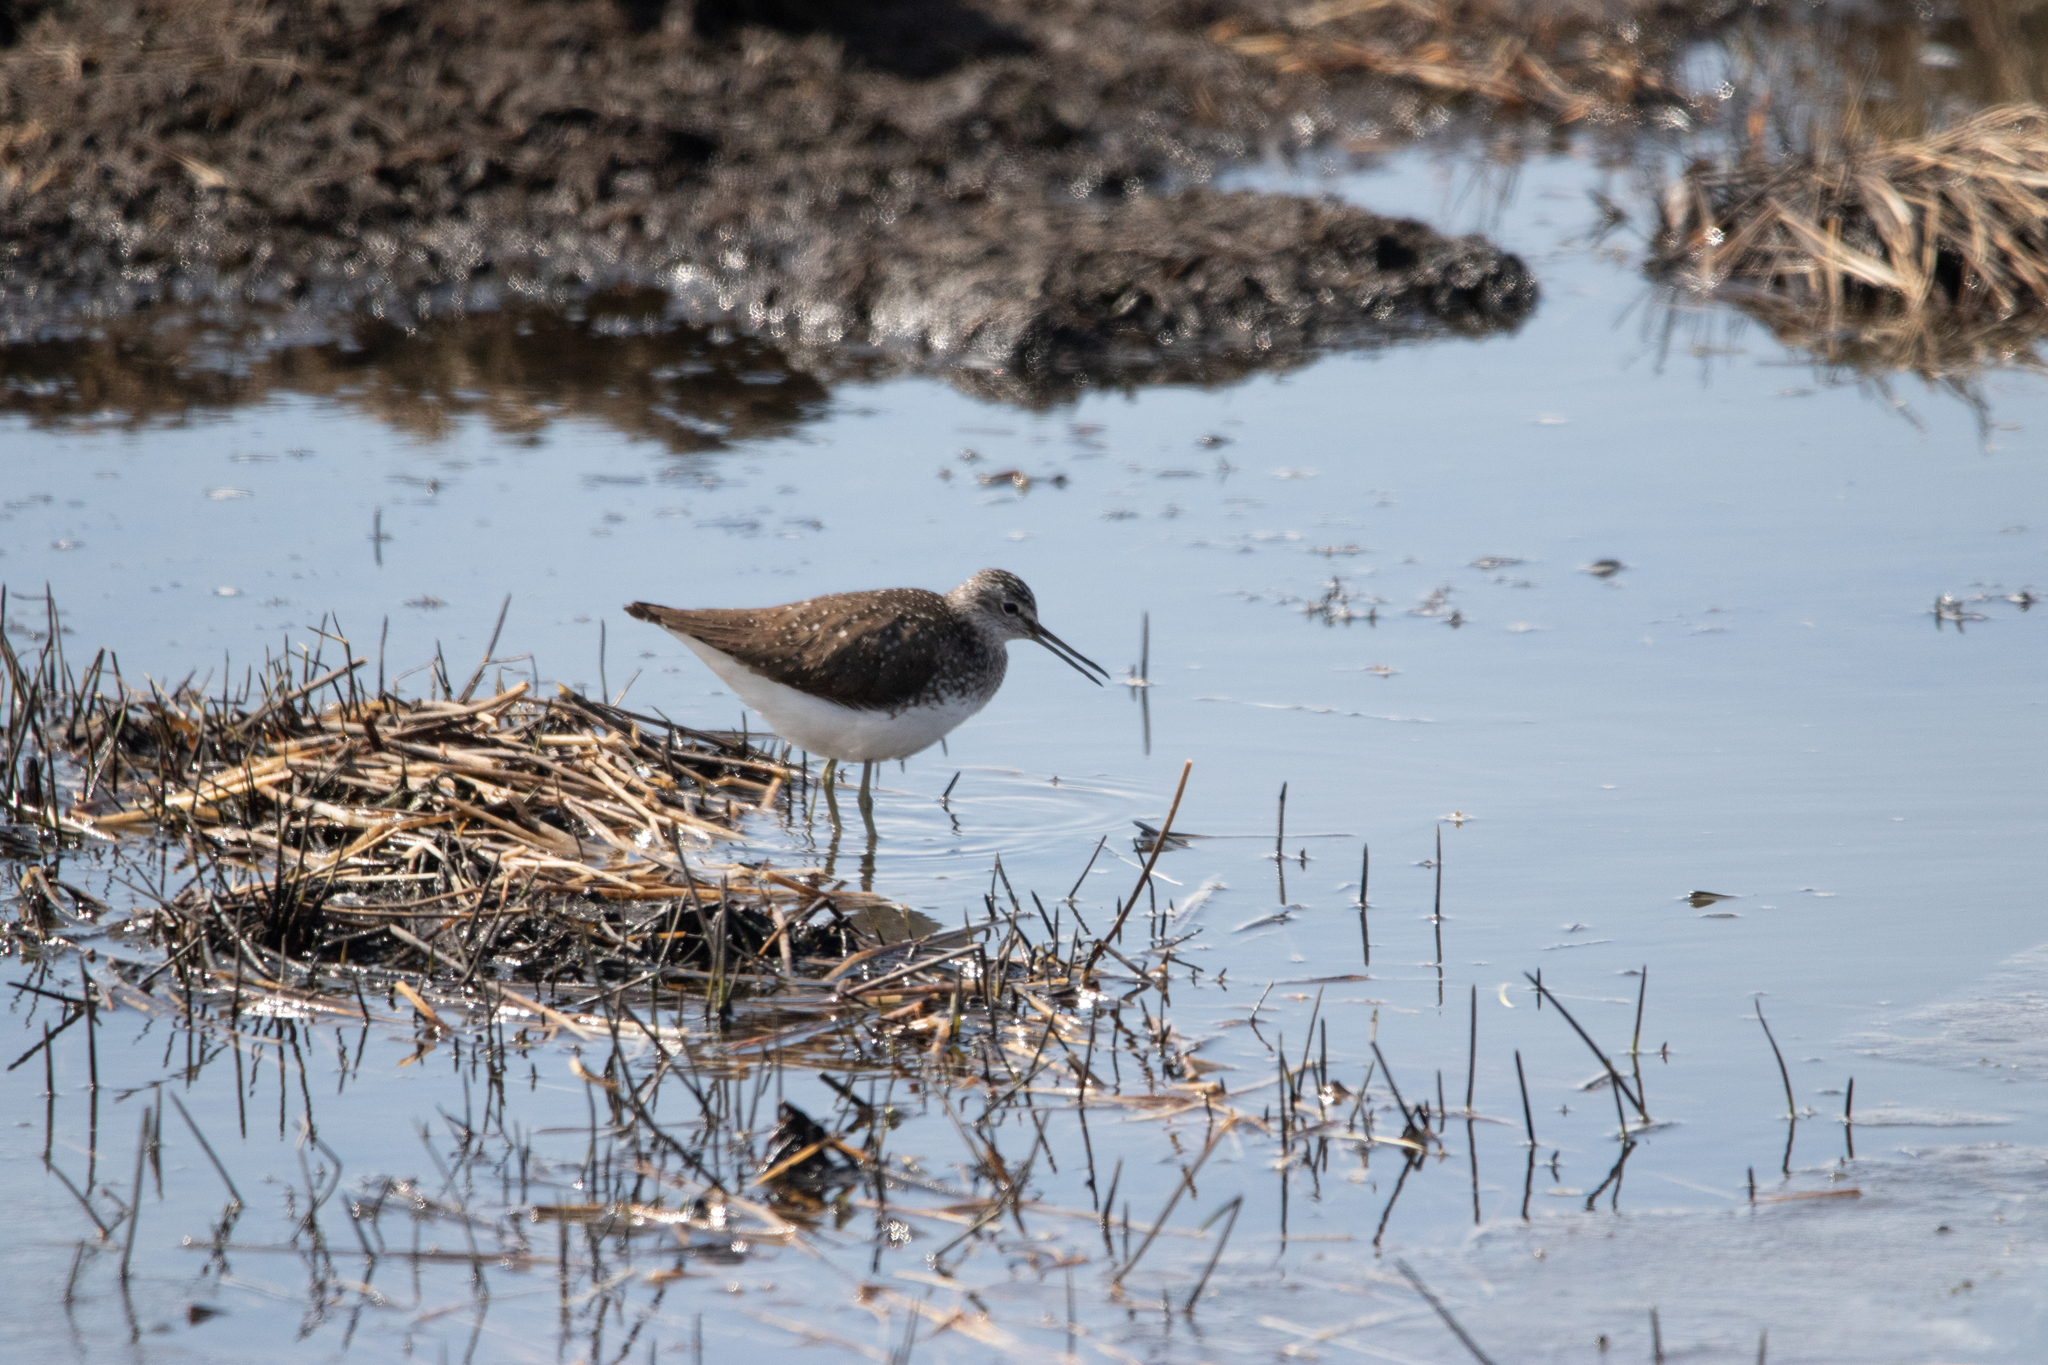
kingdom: Animalia
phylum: Chordata
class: Aves
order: Charadriiformes
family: Scolopacidae
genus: Tringa
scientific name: Tringa ochropus
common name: Green sandpiper
